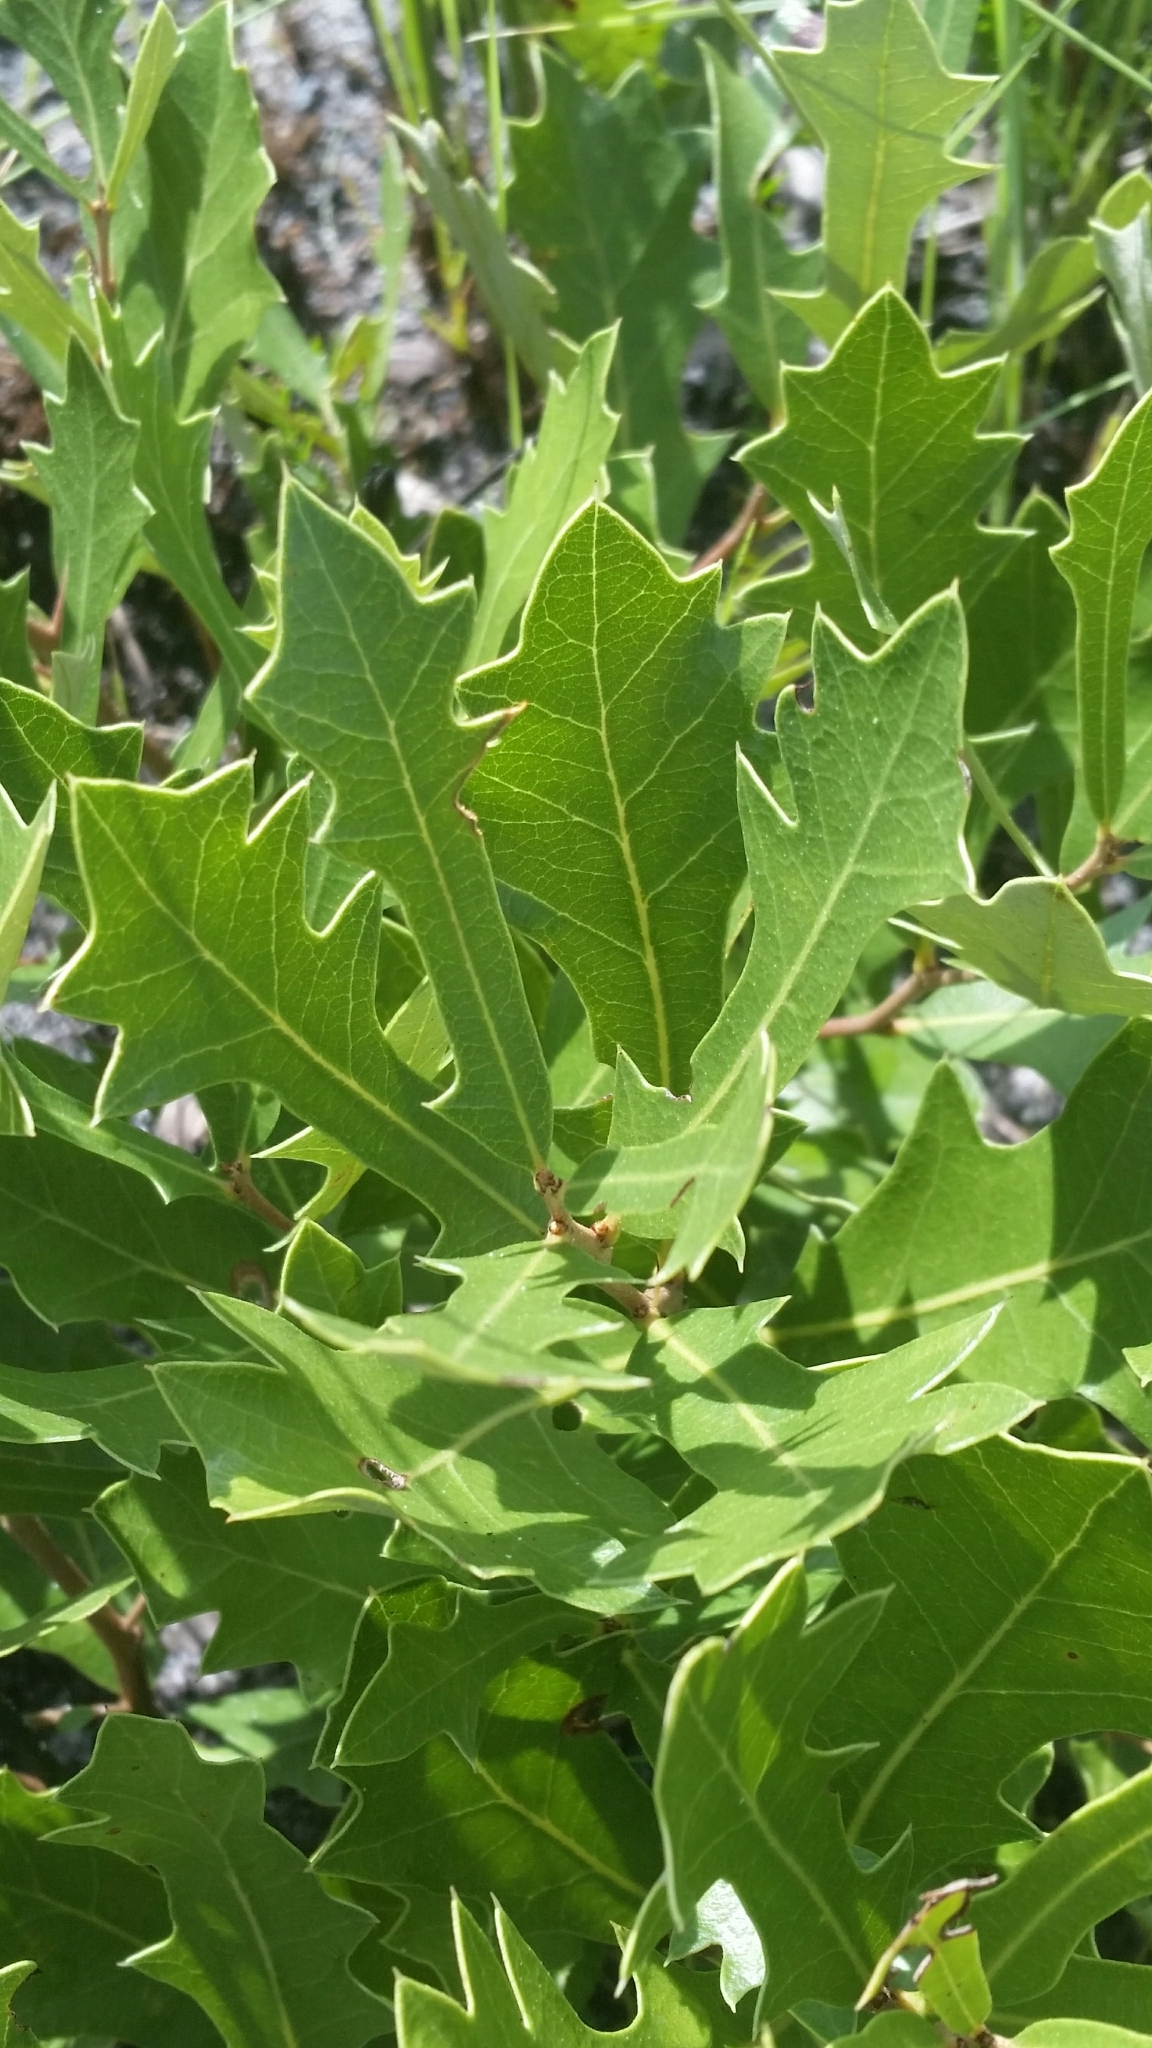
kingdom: Plantae
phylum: Tracheophyta
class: Magnoliopsida
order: Fagales
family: Fagaceae
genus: Quercus
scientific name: Quercus minima
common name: Dwarf live oak
